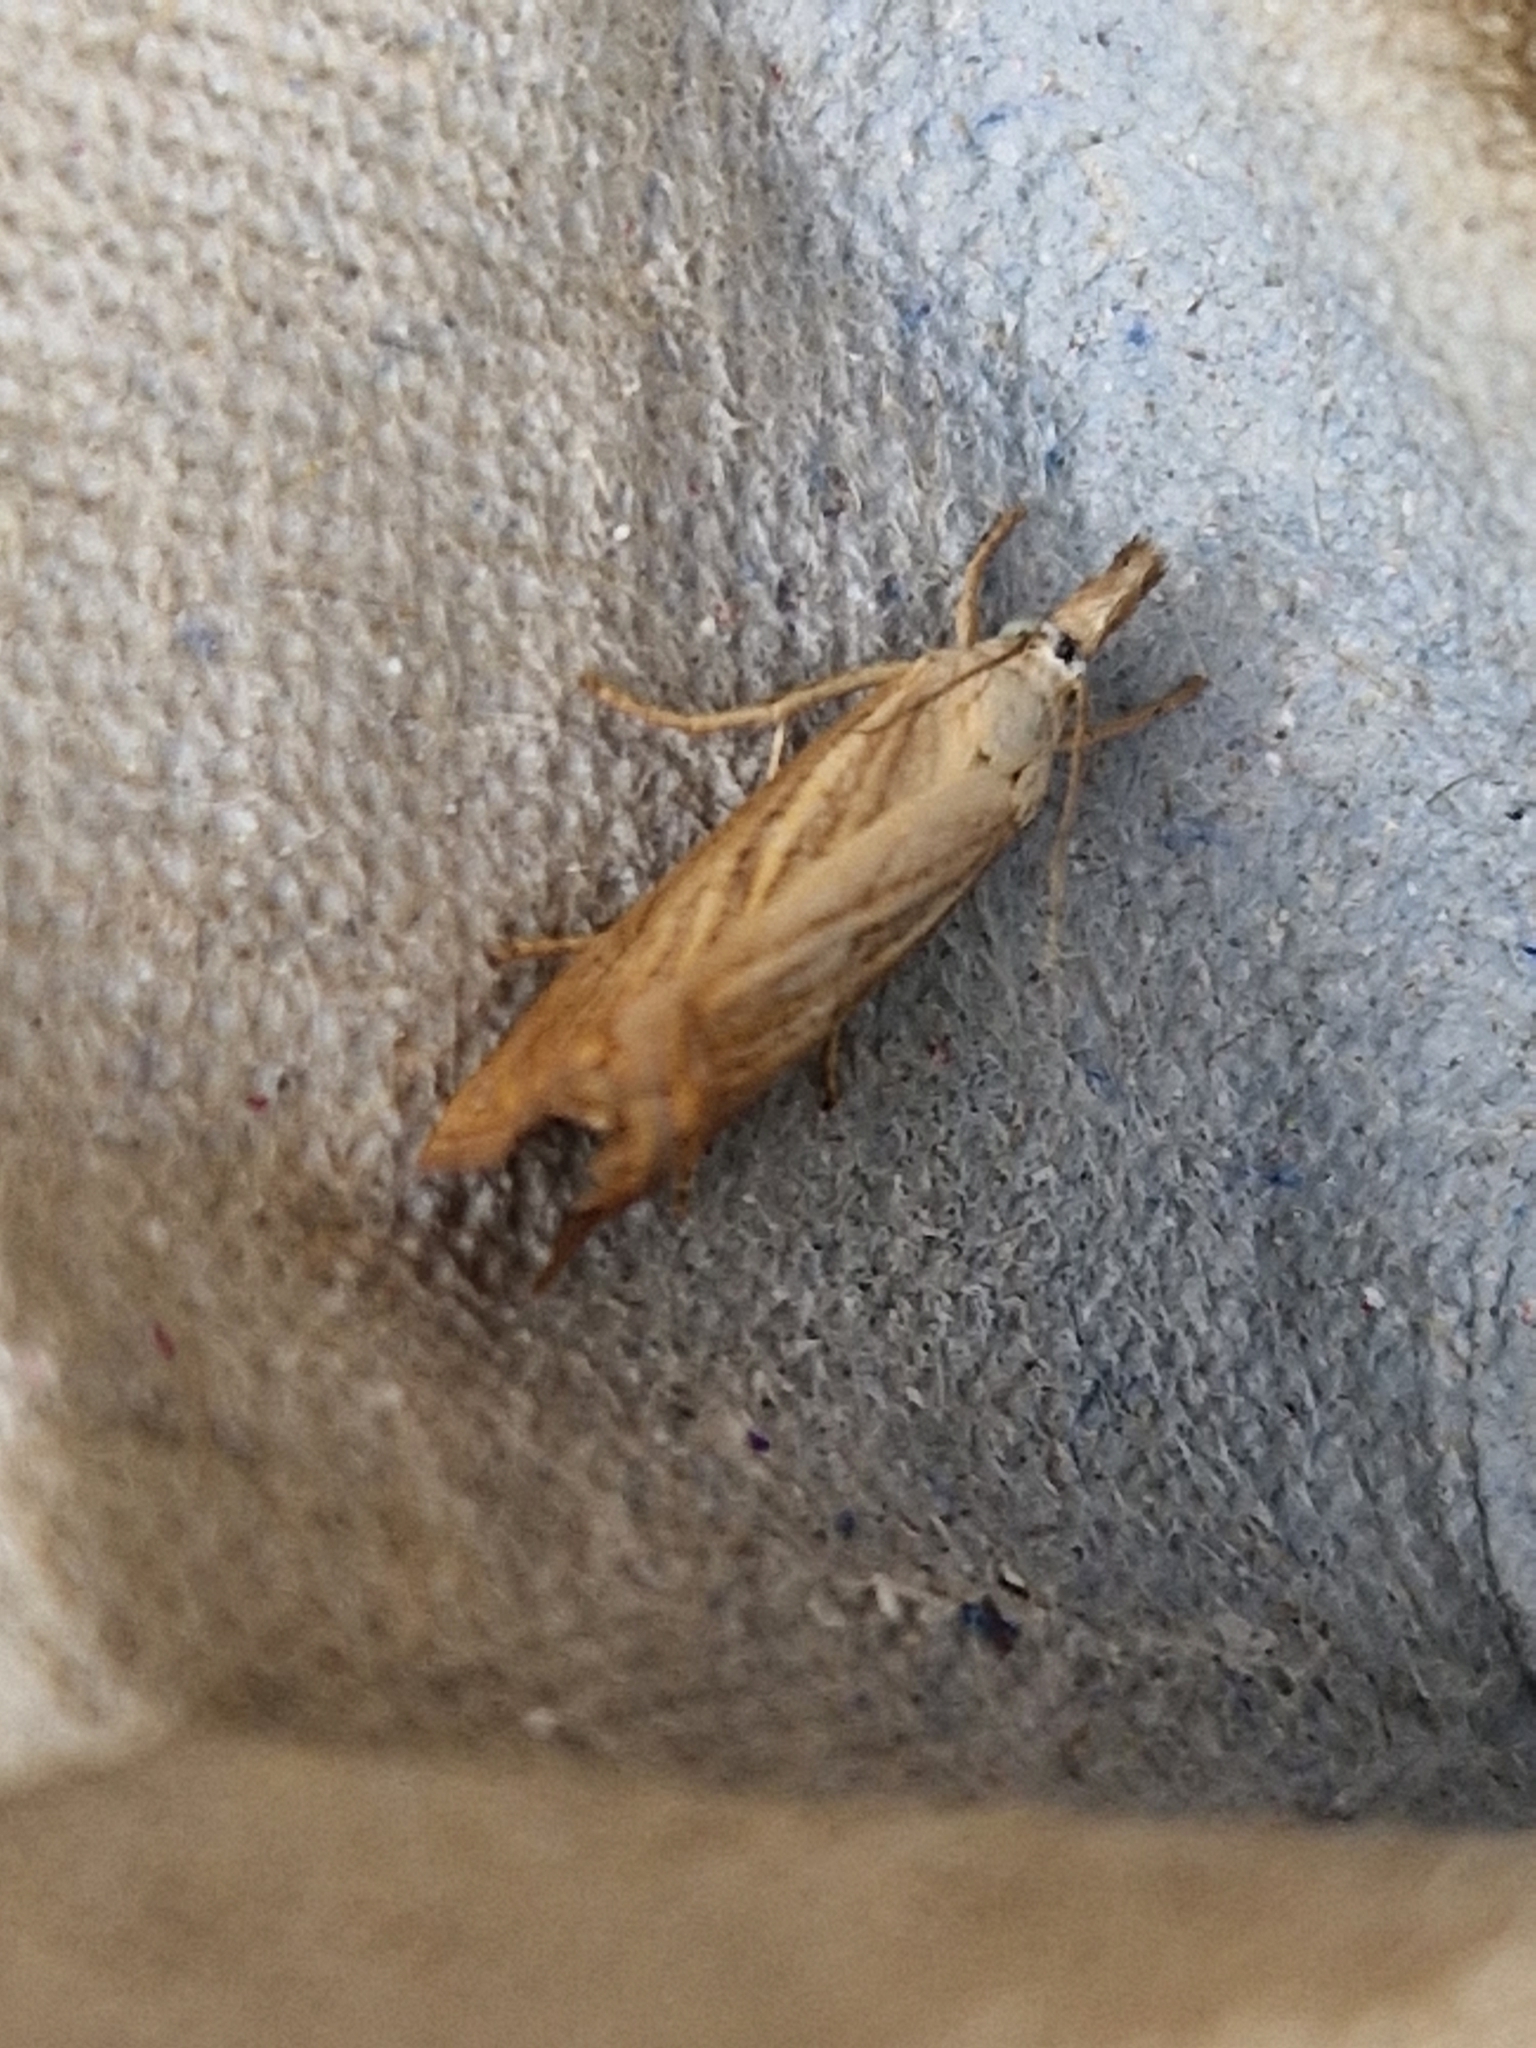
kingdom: Animalia
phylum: Arthropoda
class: Insecta
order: Lepidoptera
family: Crambidae
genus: Chrysoteuchia
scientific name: Chrysoteuchia culmella
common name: Garden grass-veneer
